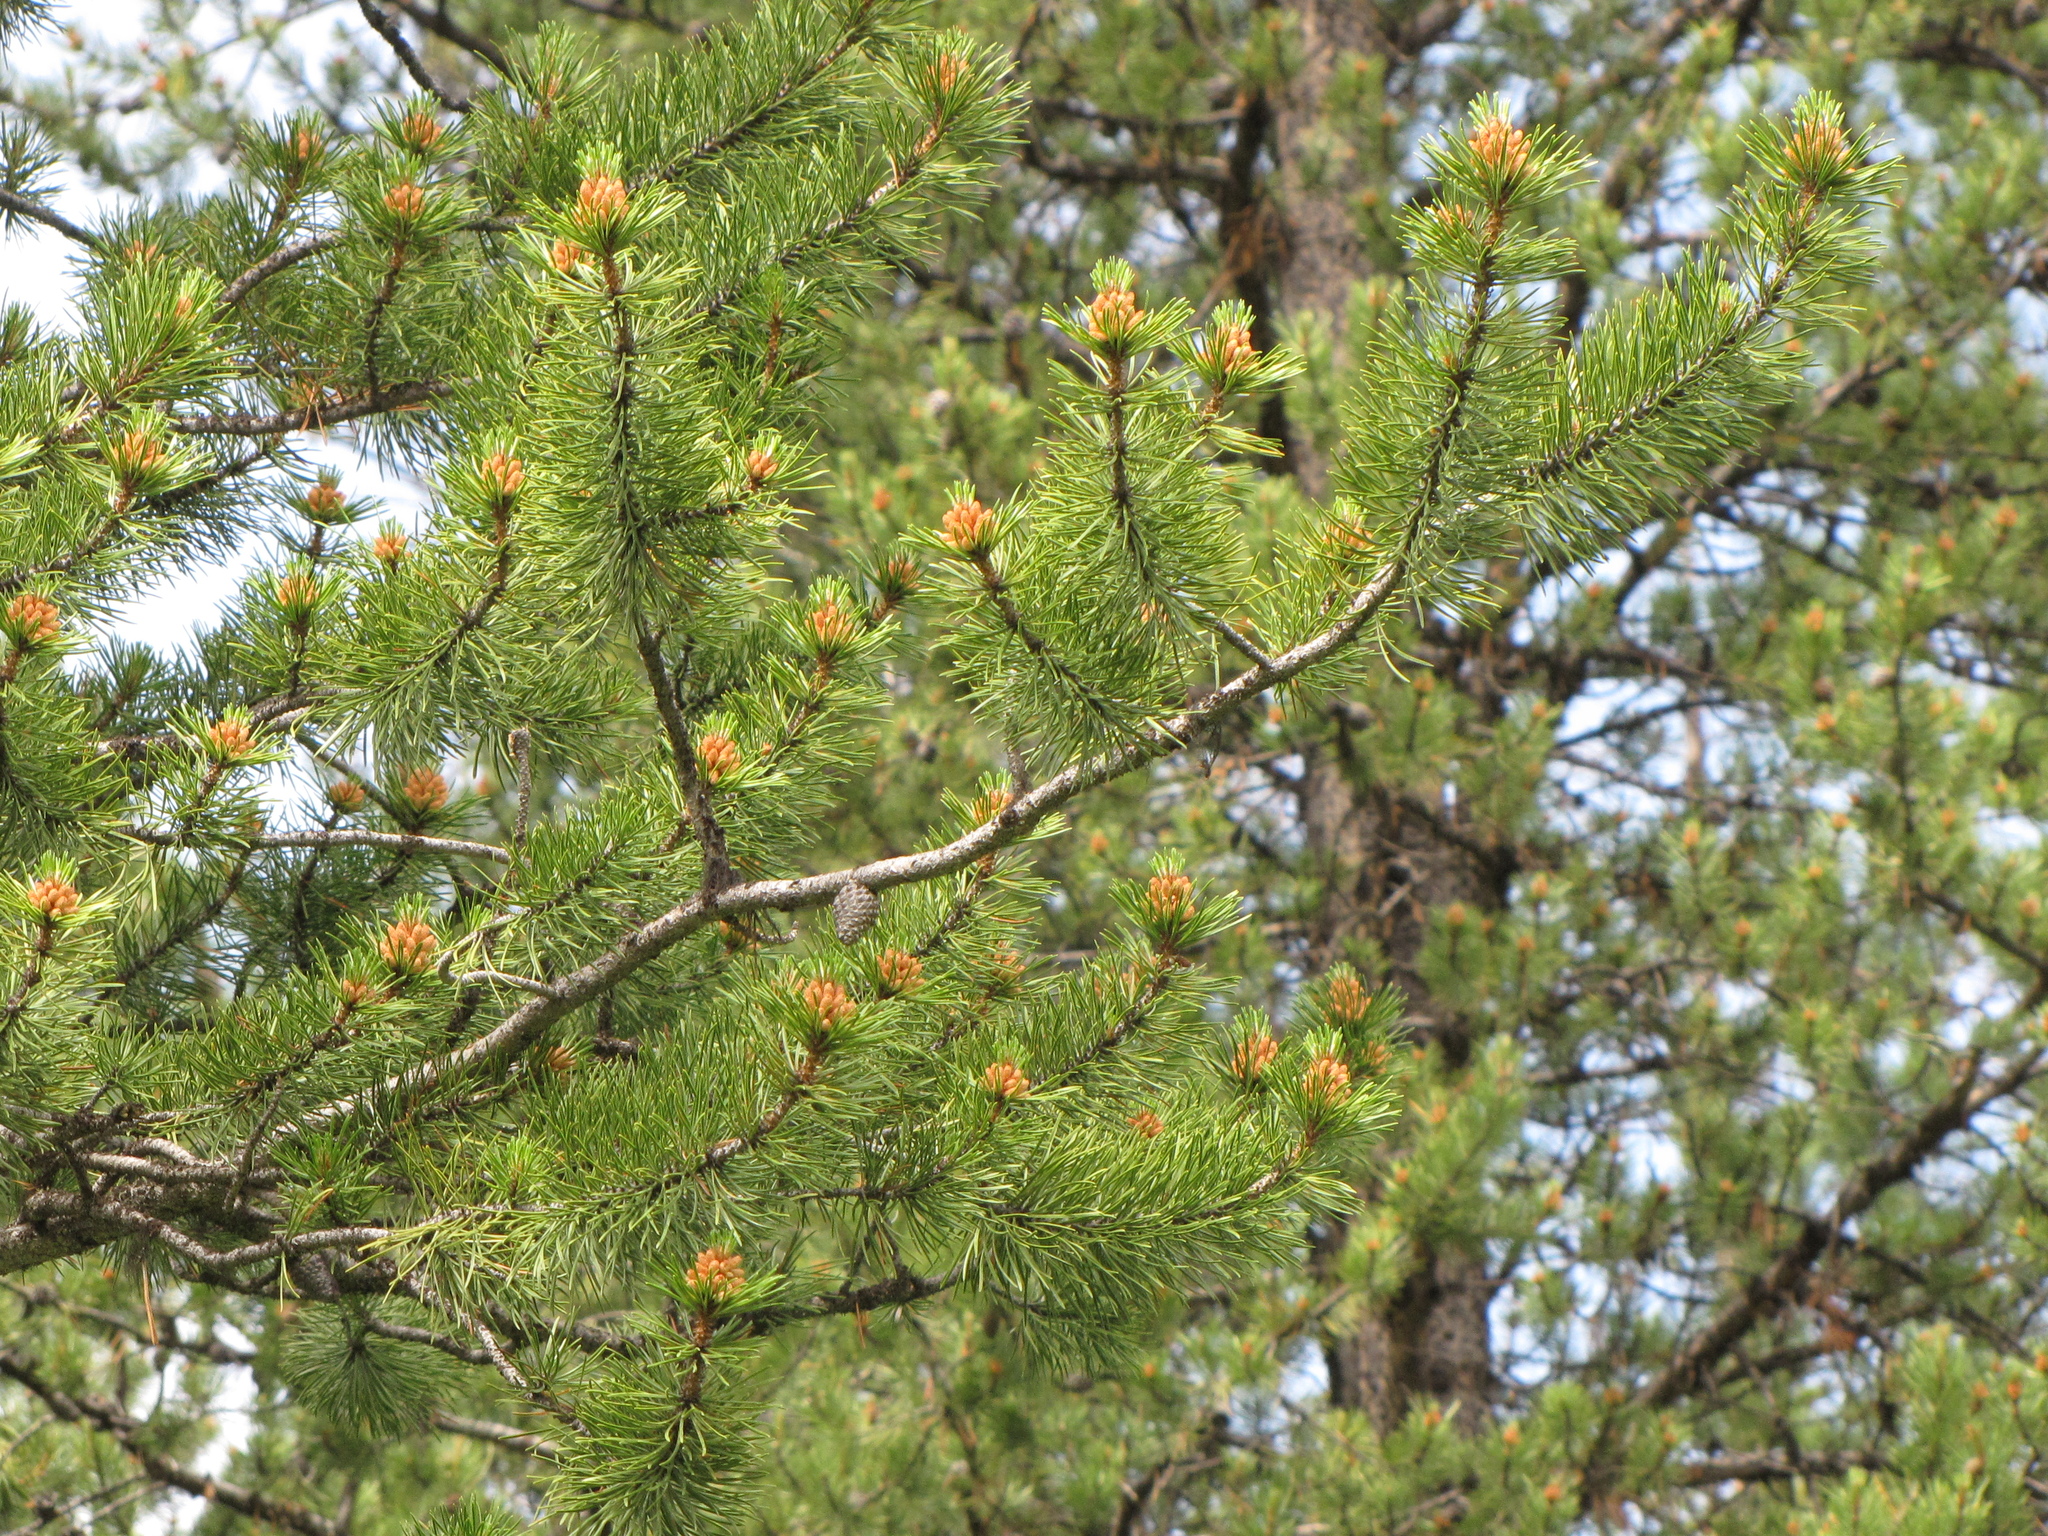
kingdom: Plantae
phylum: Tracheophyta
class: Pinopsida
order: Pinales
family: Pinaceae
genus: Pinus
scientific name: Pinus contorta
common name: Lodgepole pine
